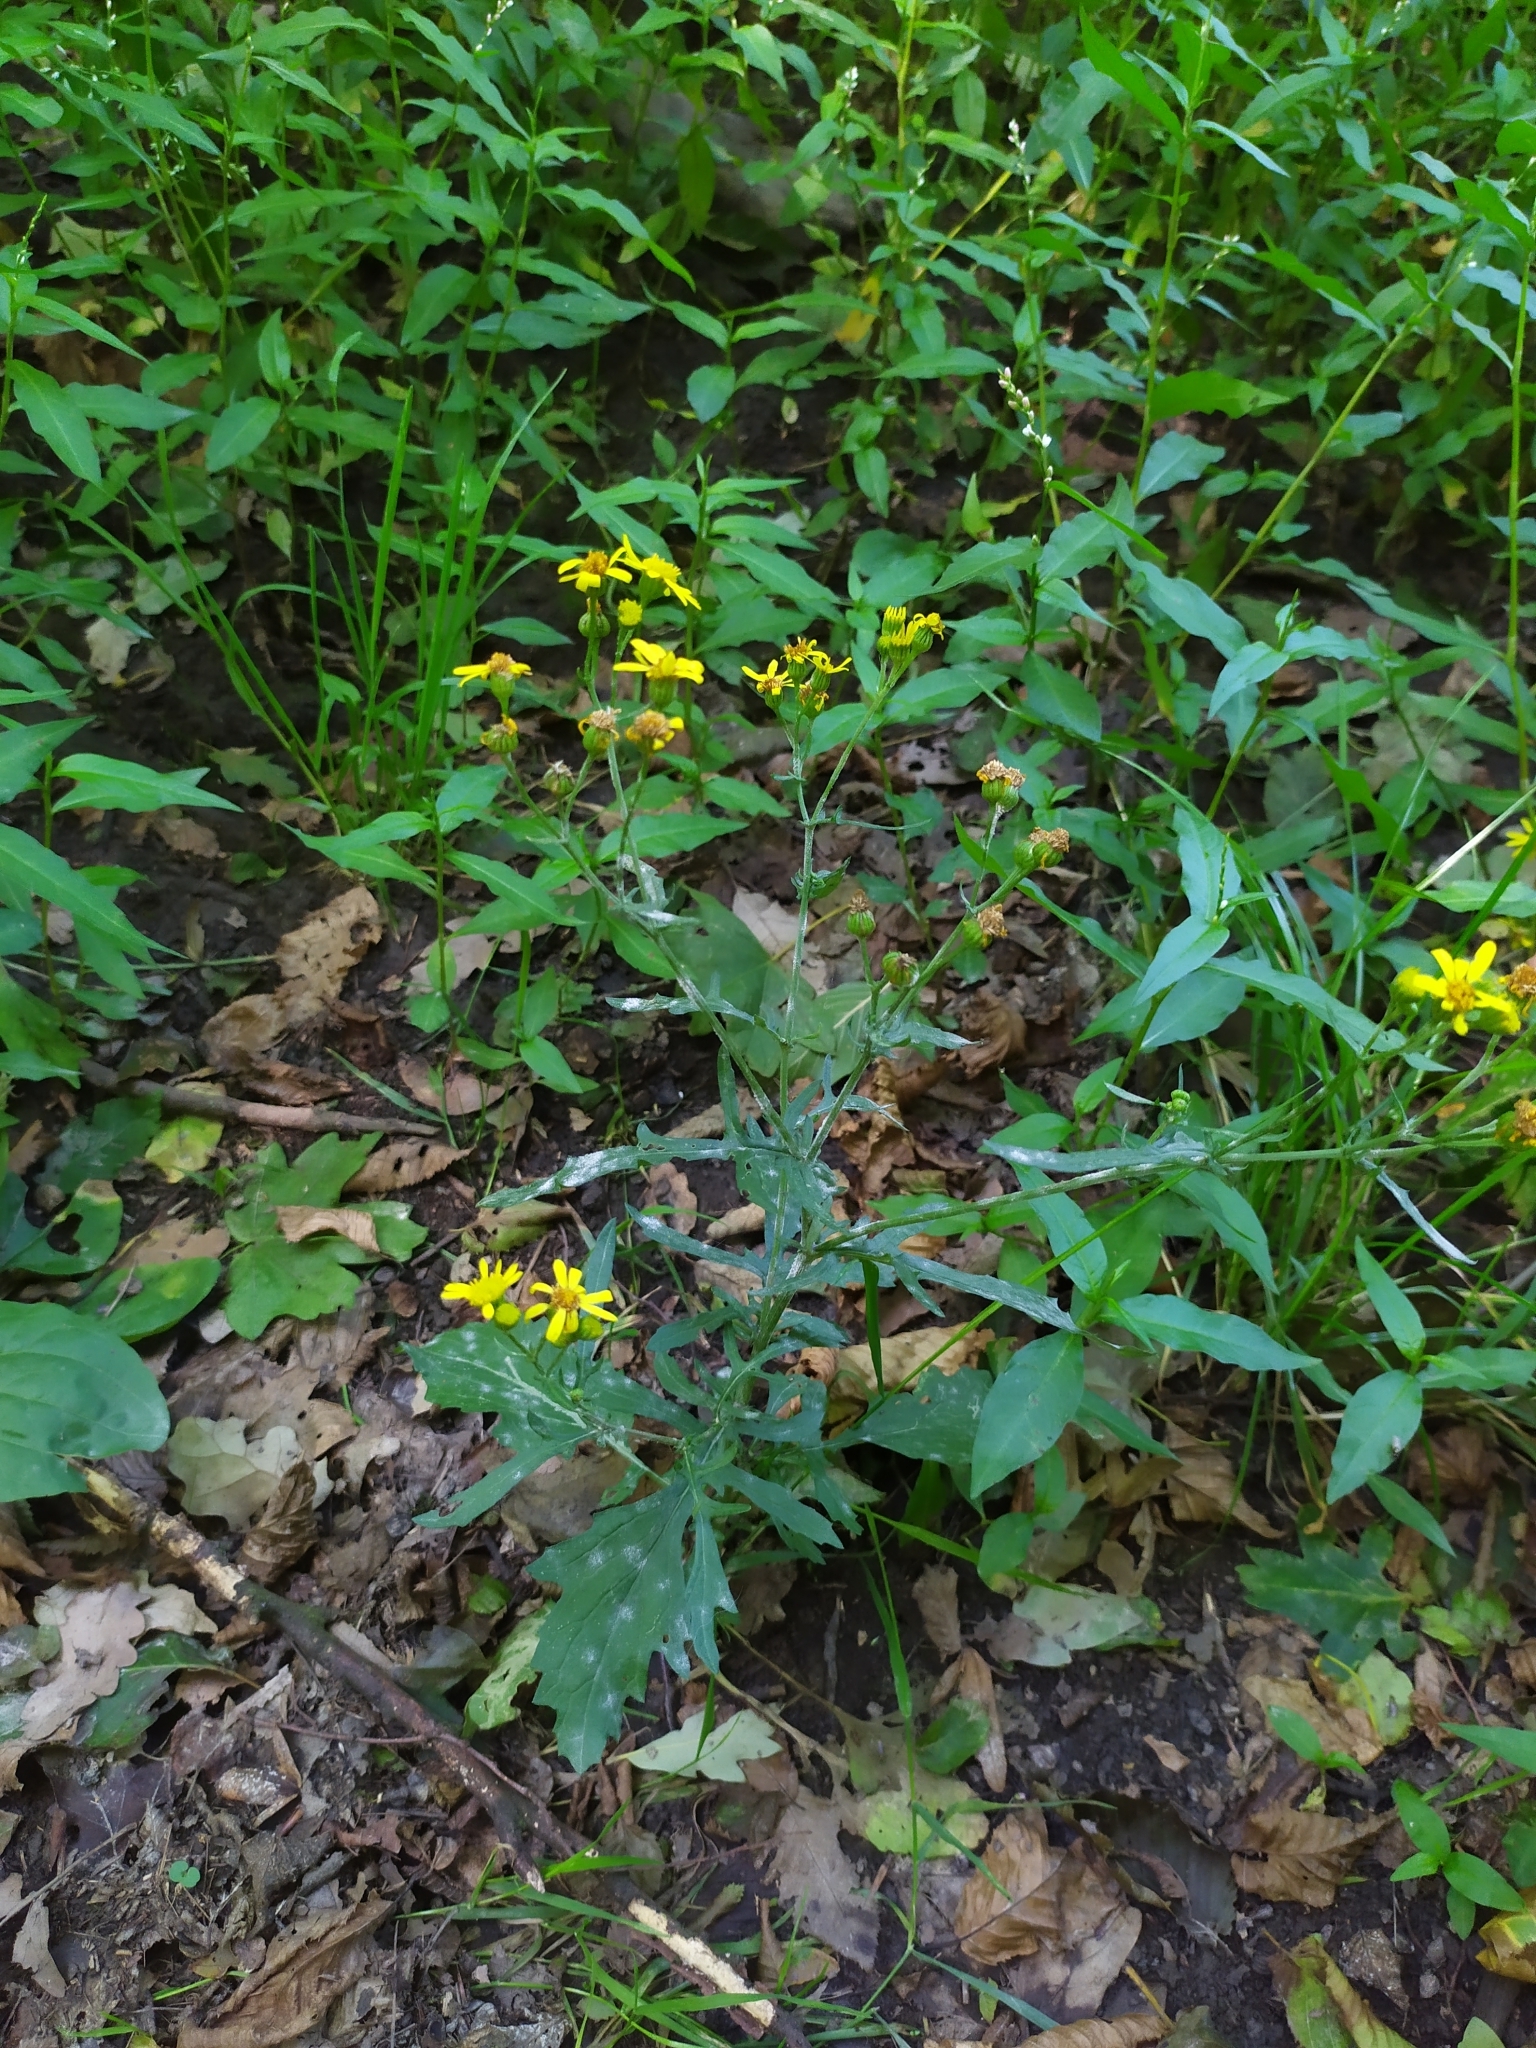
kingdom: Plantae
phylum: Tracheophyta
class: Magnoliopsida
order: Asterales
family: Asteraceae
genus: Jacobaea
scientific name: Jacobaea erratica
